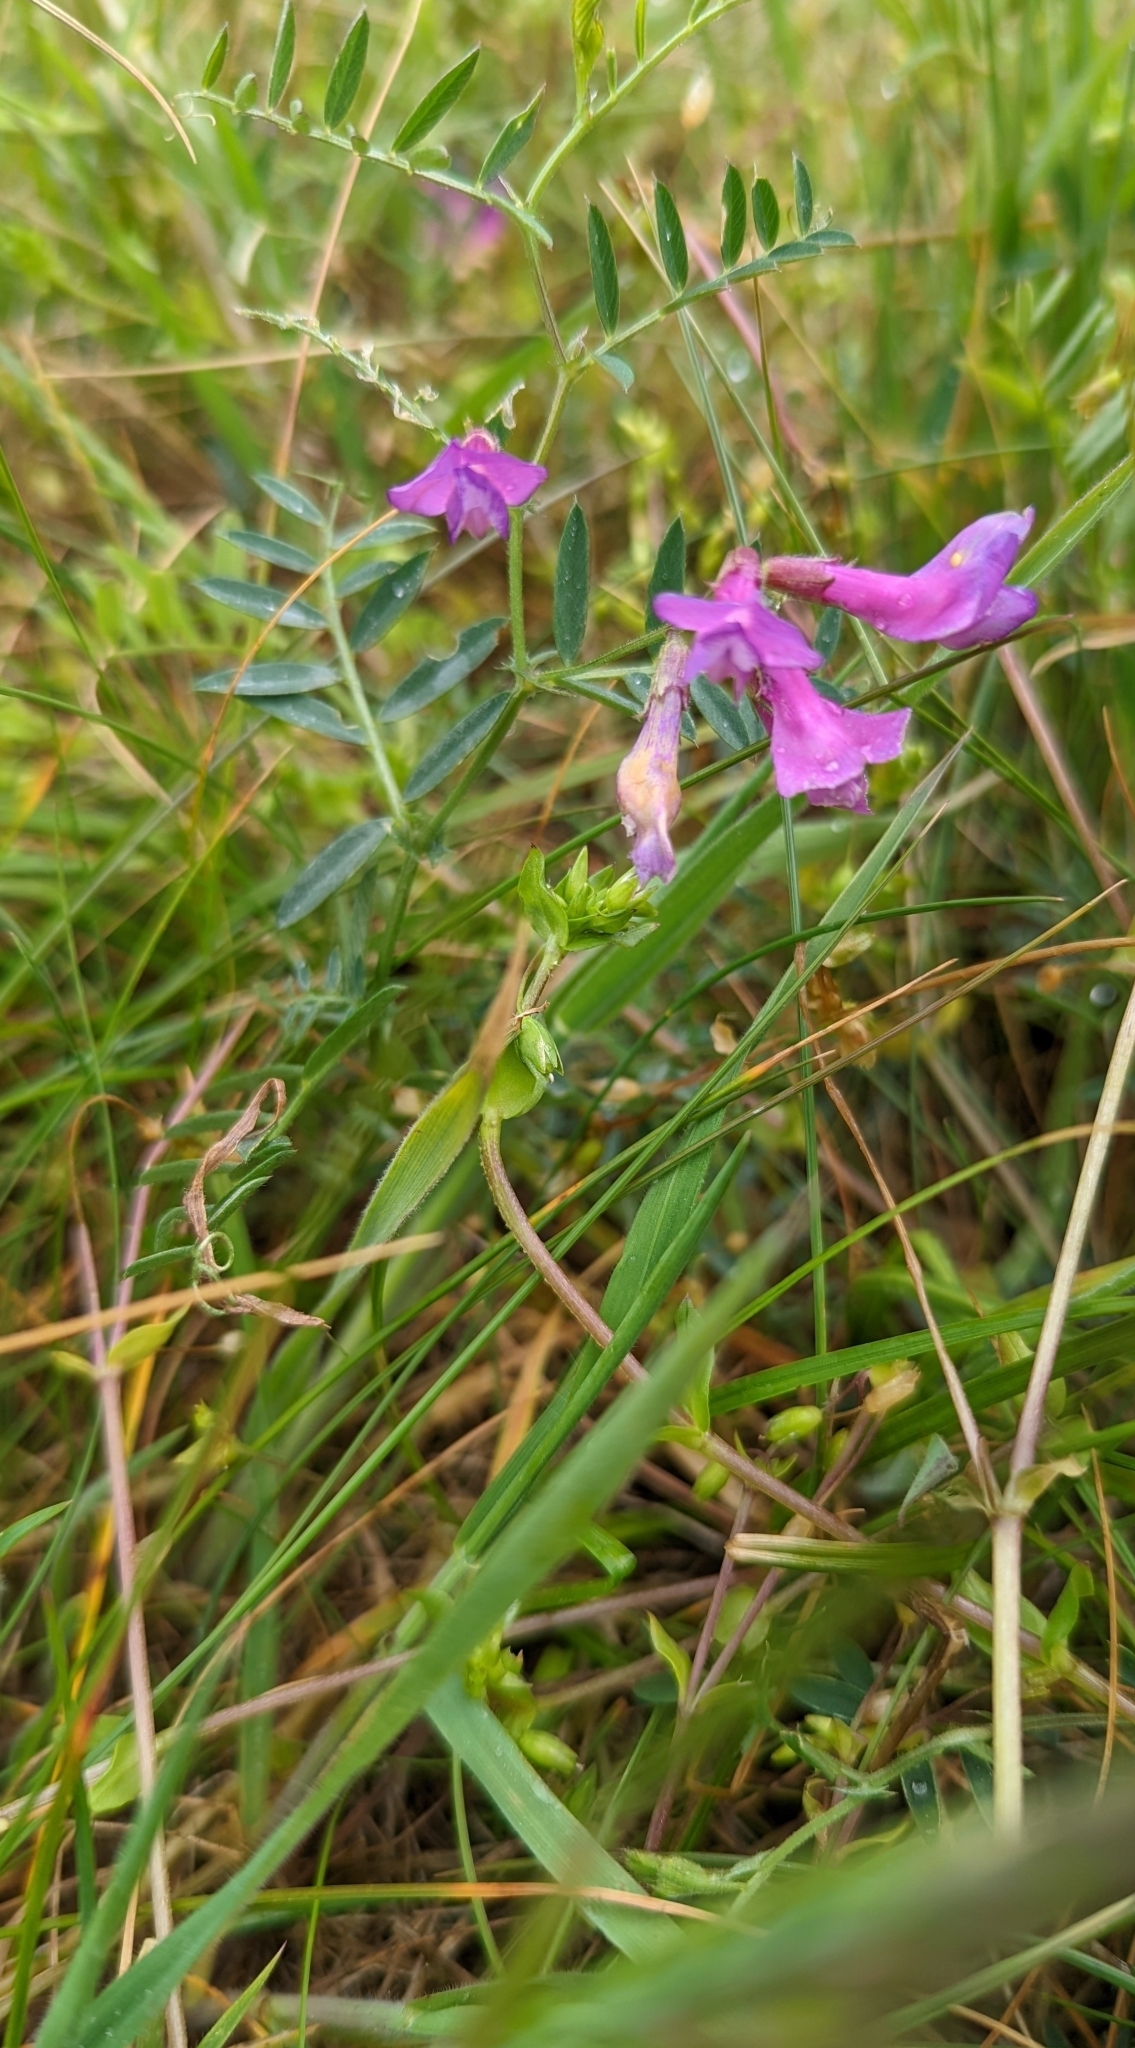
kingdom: Plantae
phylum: Tracheophyta
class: Magnoliopsida
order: Fabales
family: Fabaceae
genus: Vicia
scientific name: Vicia americana
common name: American vetch
